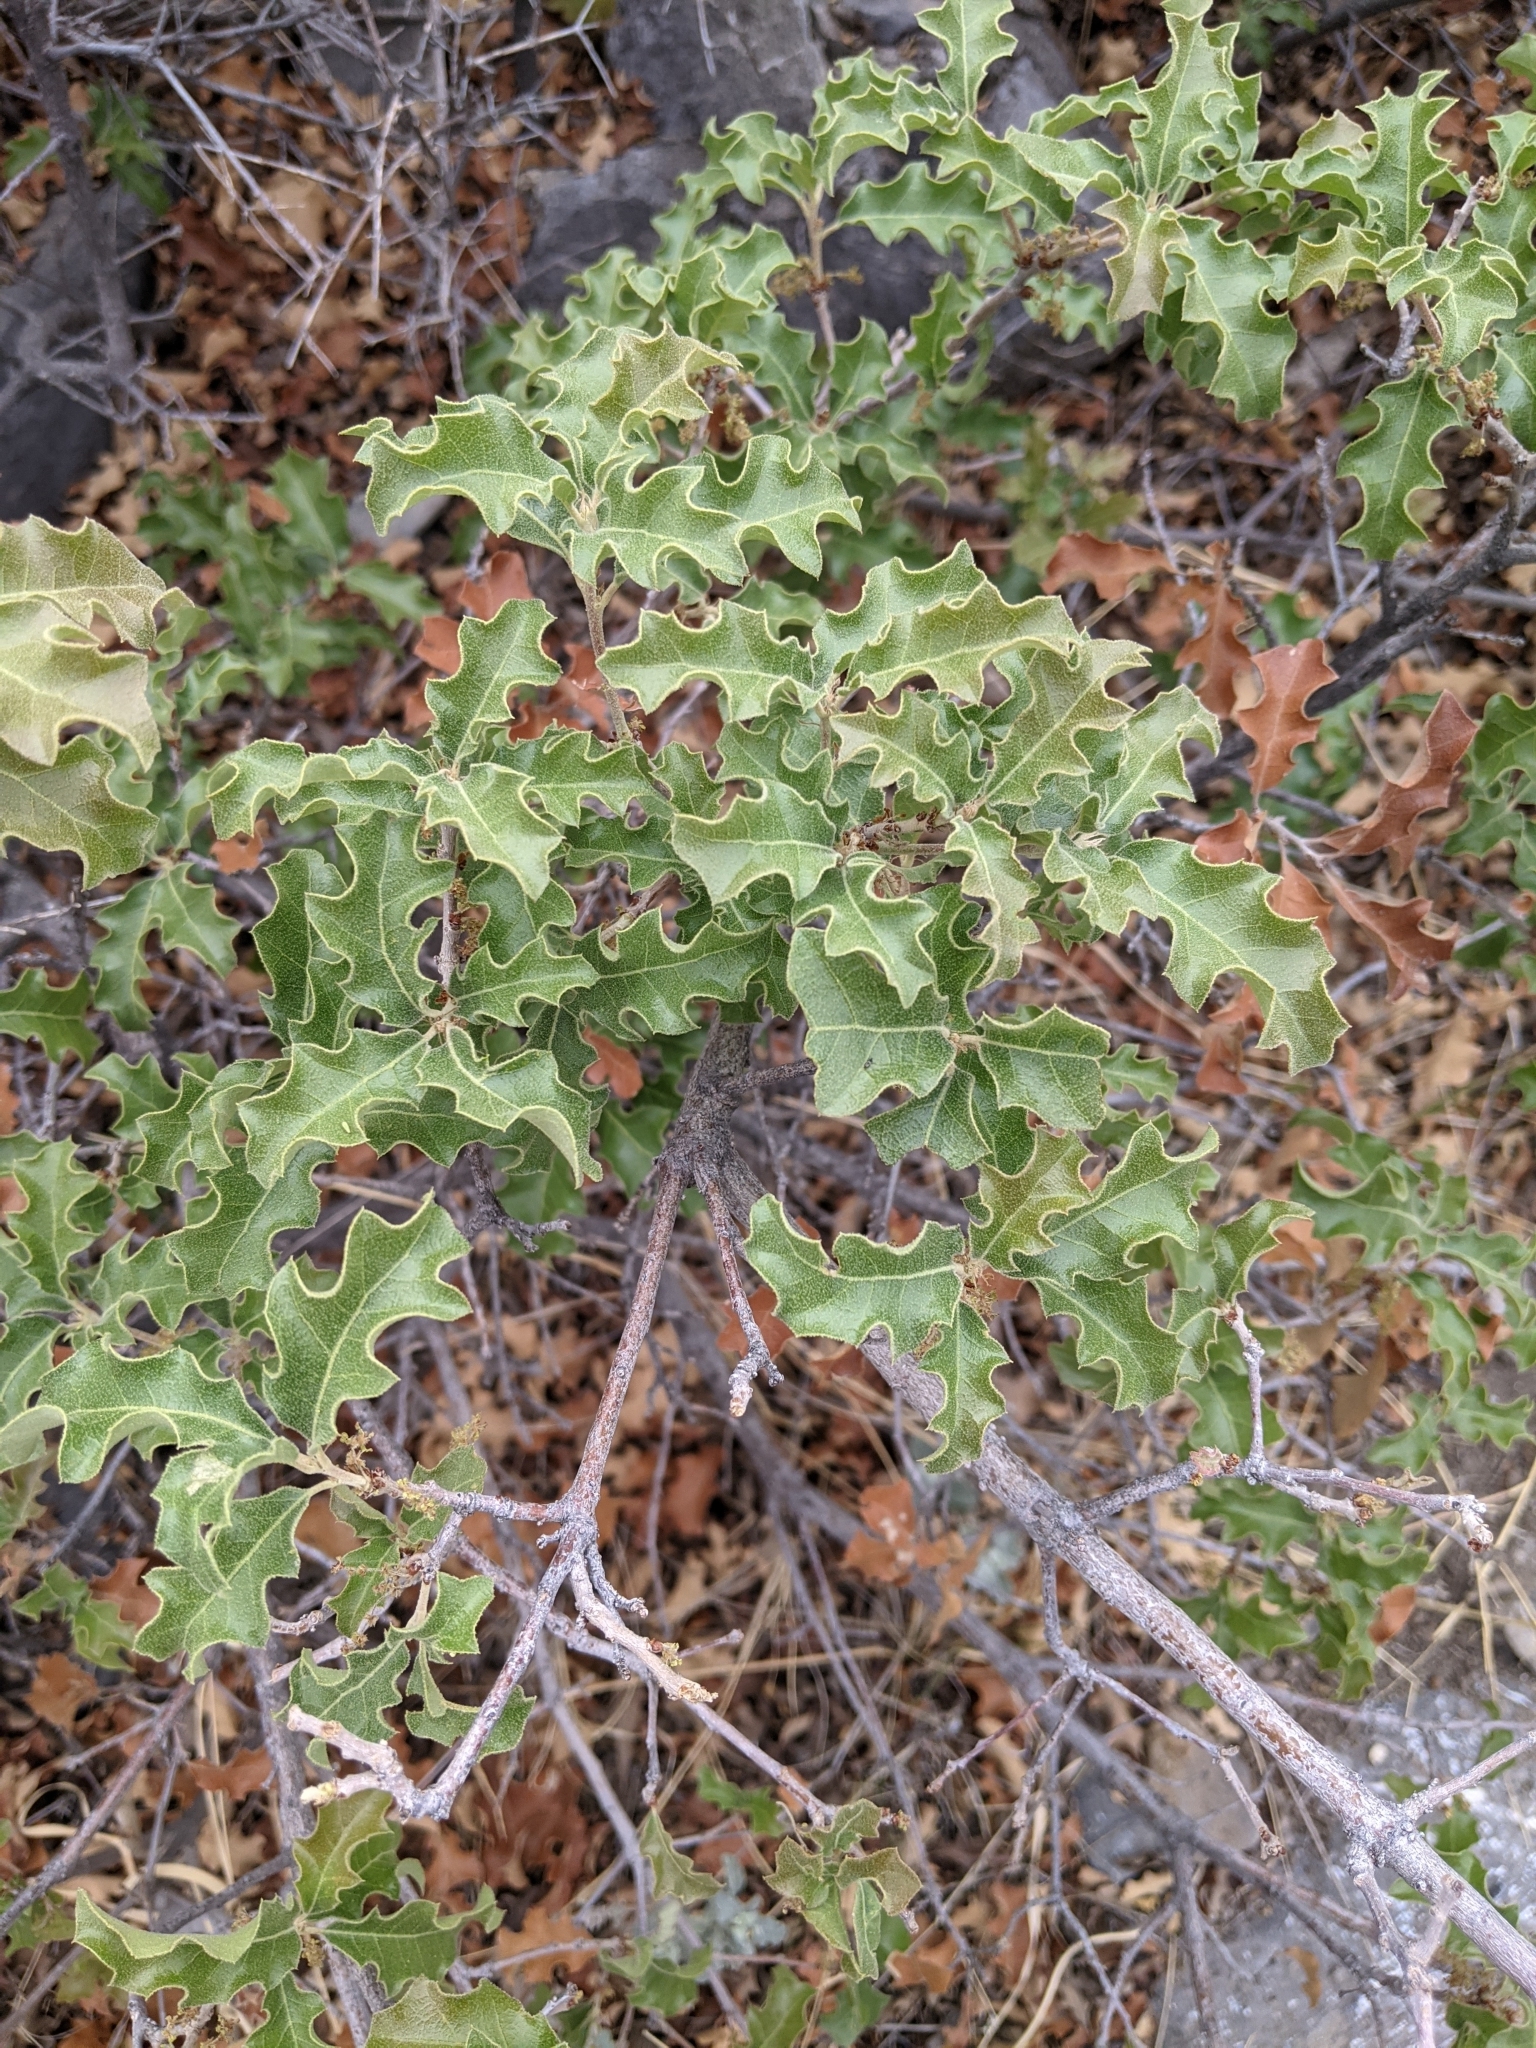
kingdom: Plantae
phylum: Tracheophyta
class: Magnoliopsida
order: Fagales
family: Fagaceae
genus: Quercus
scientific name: Quercus pungens
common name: Pungent oak
